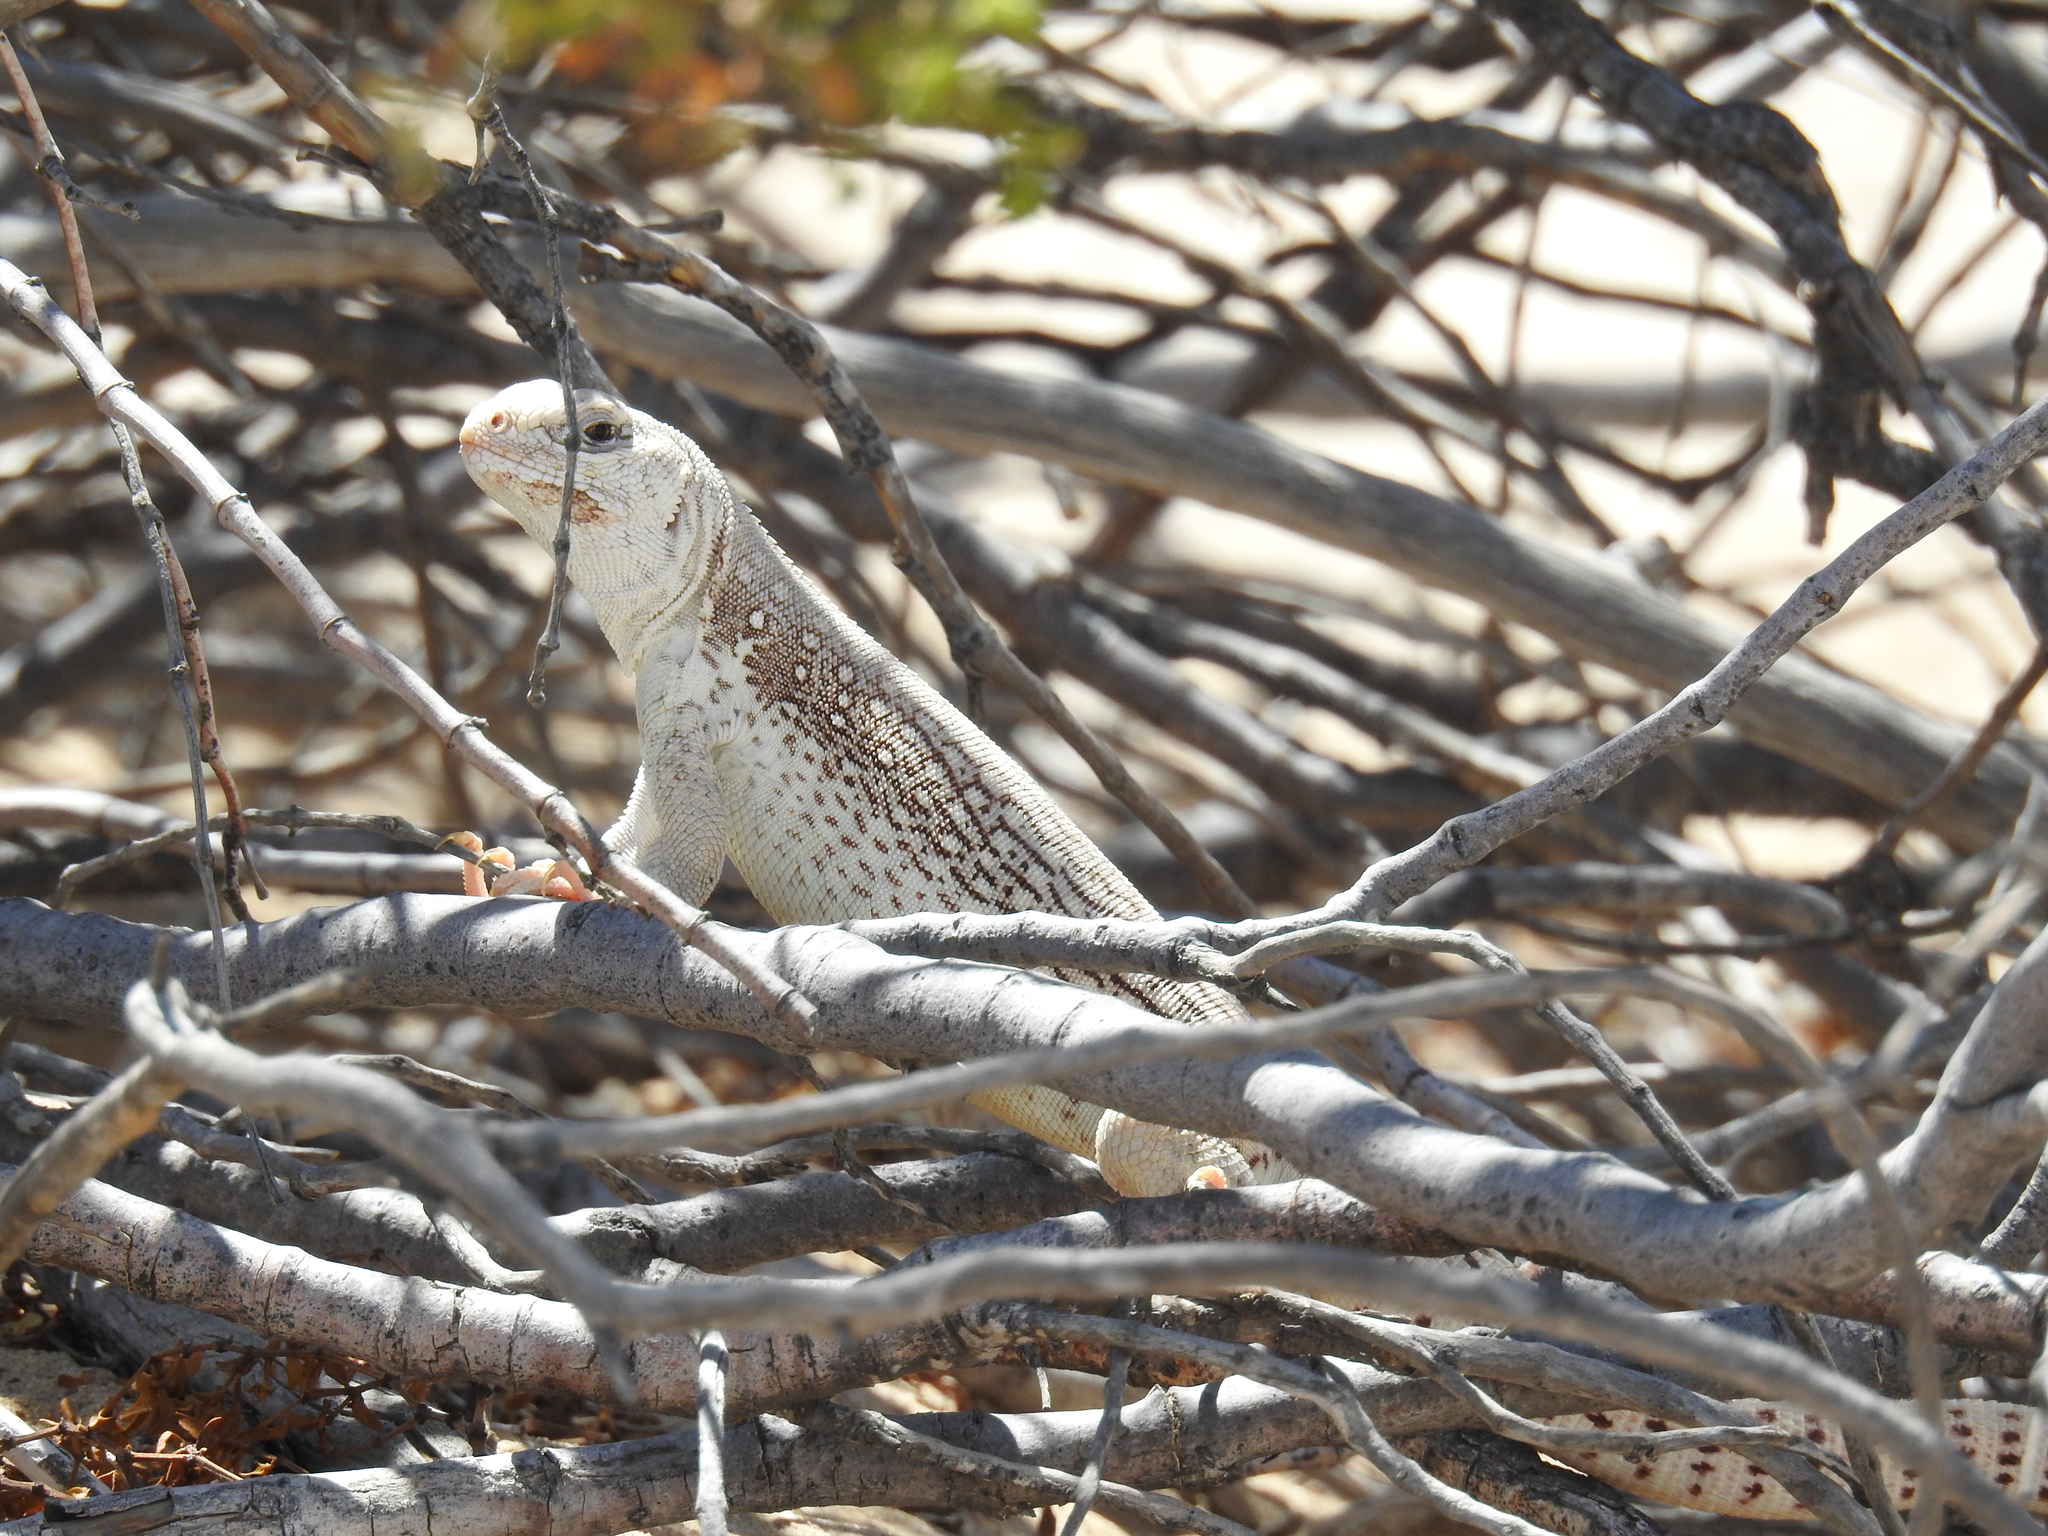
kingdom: Animalia
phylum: Chordata
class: Squamata
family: Iguanidae
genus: Dipsosaurus
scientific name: Dipsosaurus dorsalis
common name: Desert iguana
